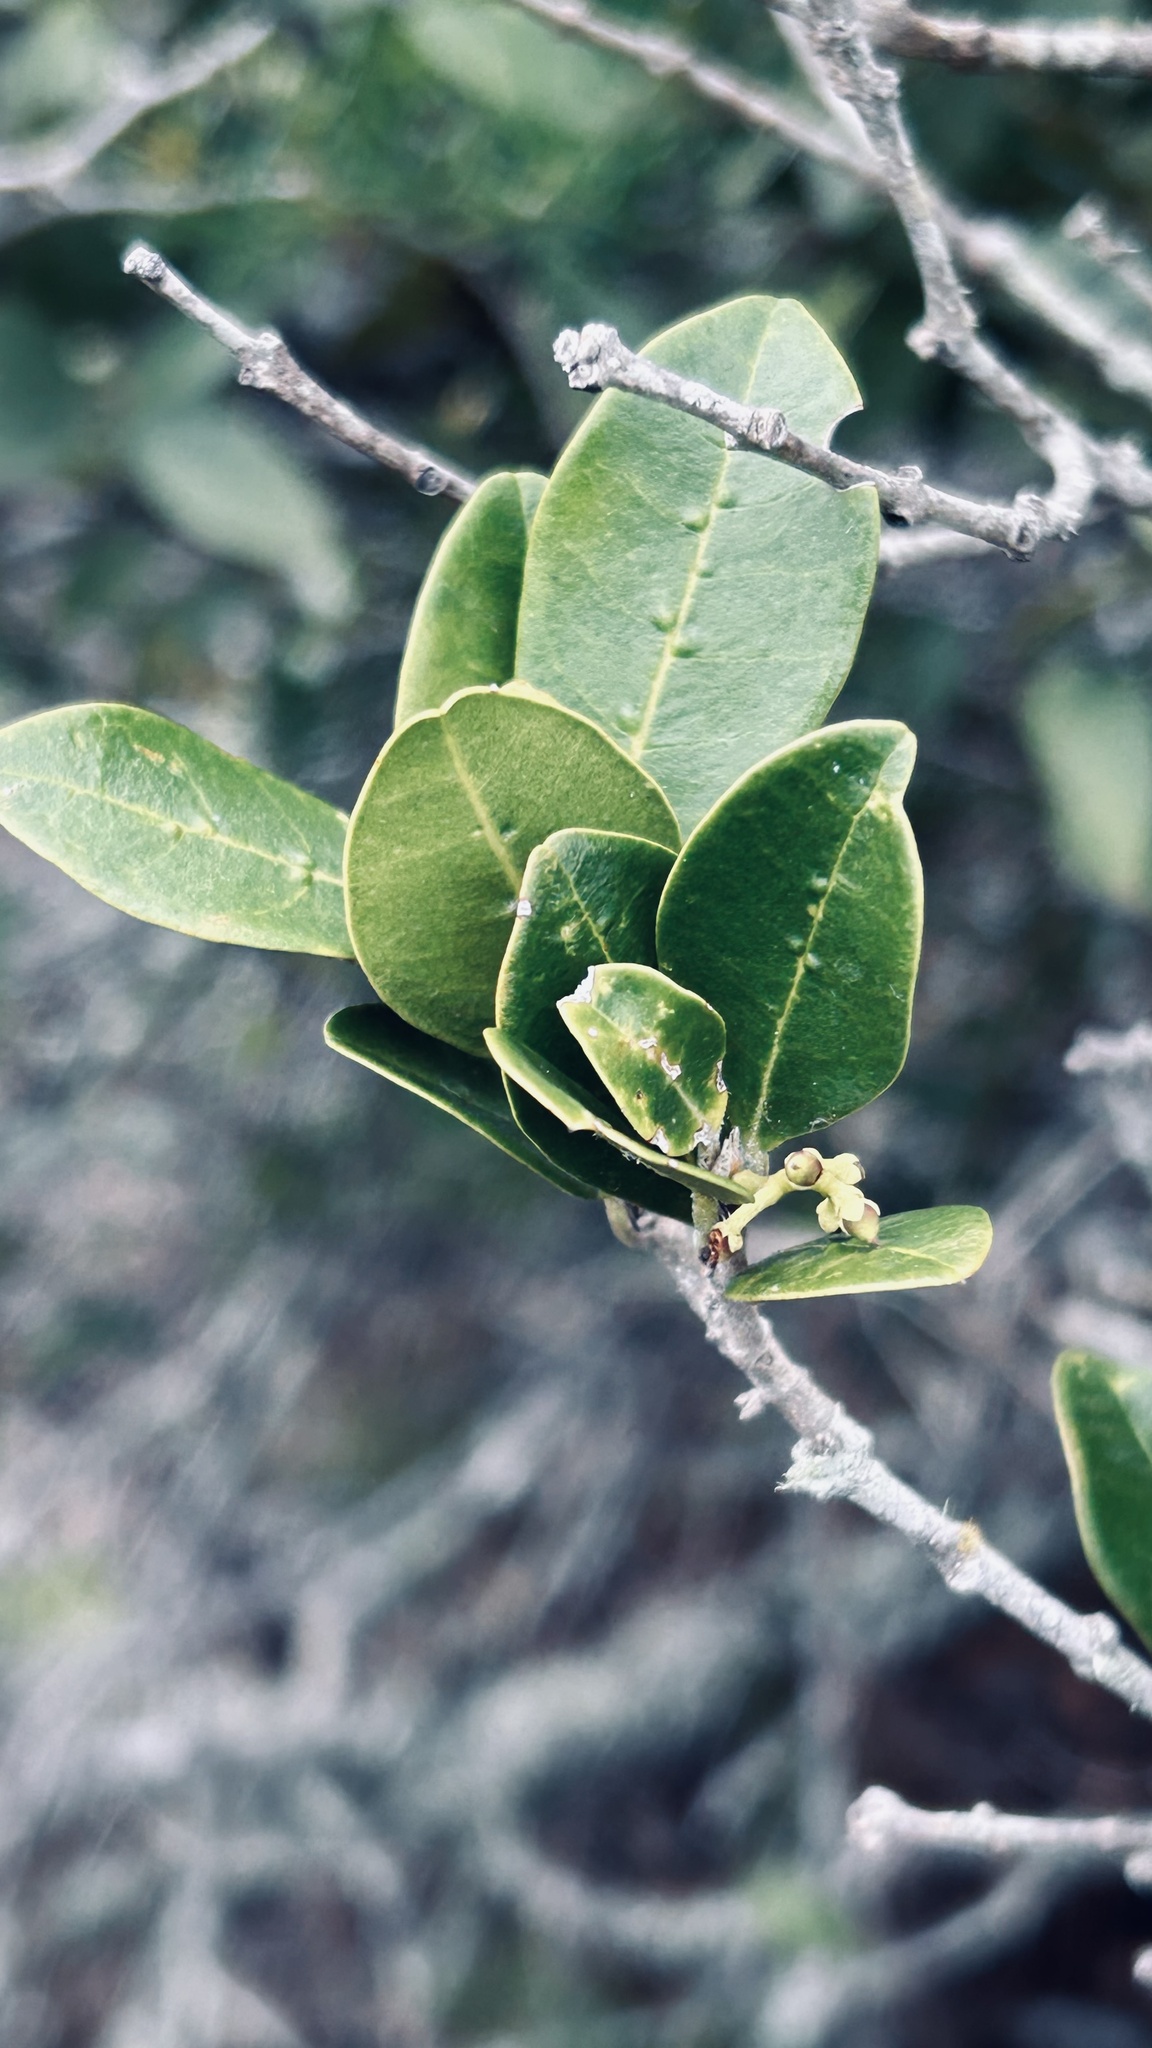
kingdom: Plantae
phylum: Tracheophyta
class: Magnoliopsida
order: Lamiales
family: Oleaceae
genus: Noronhia
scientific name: Noronhia foveolata
